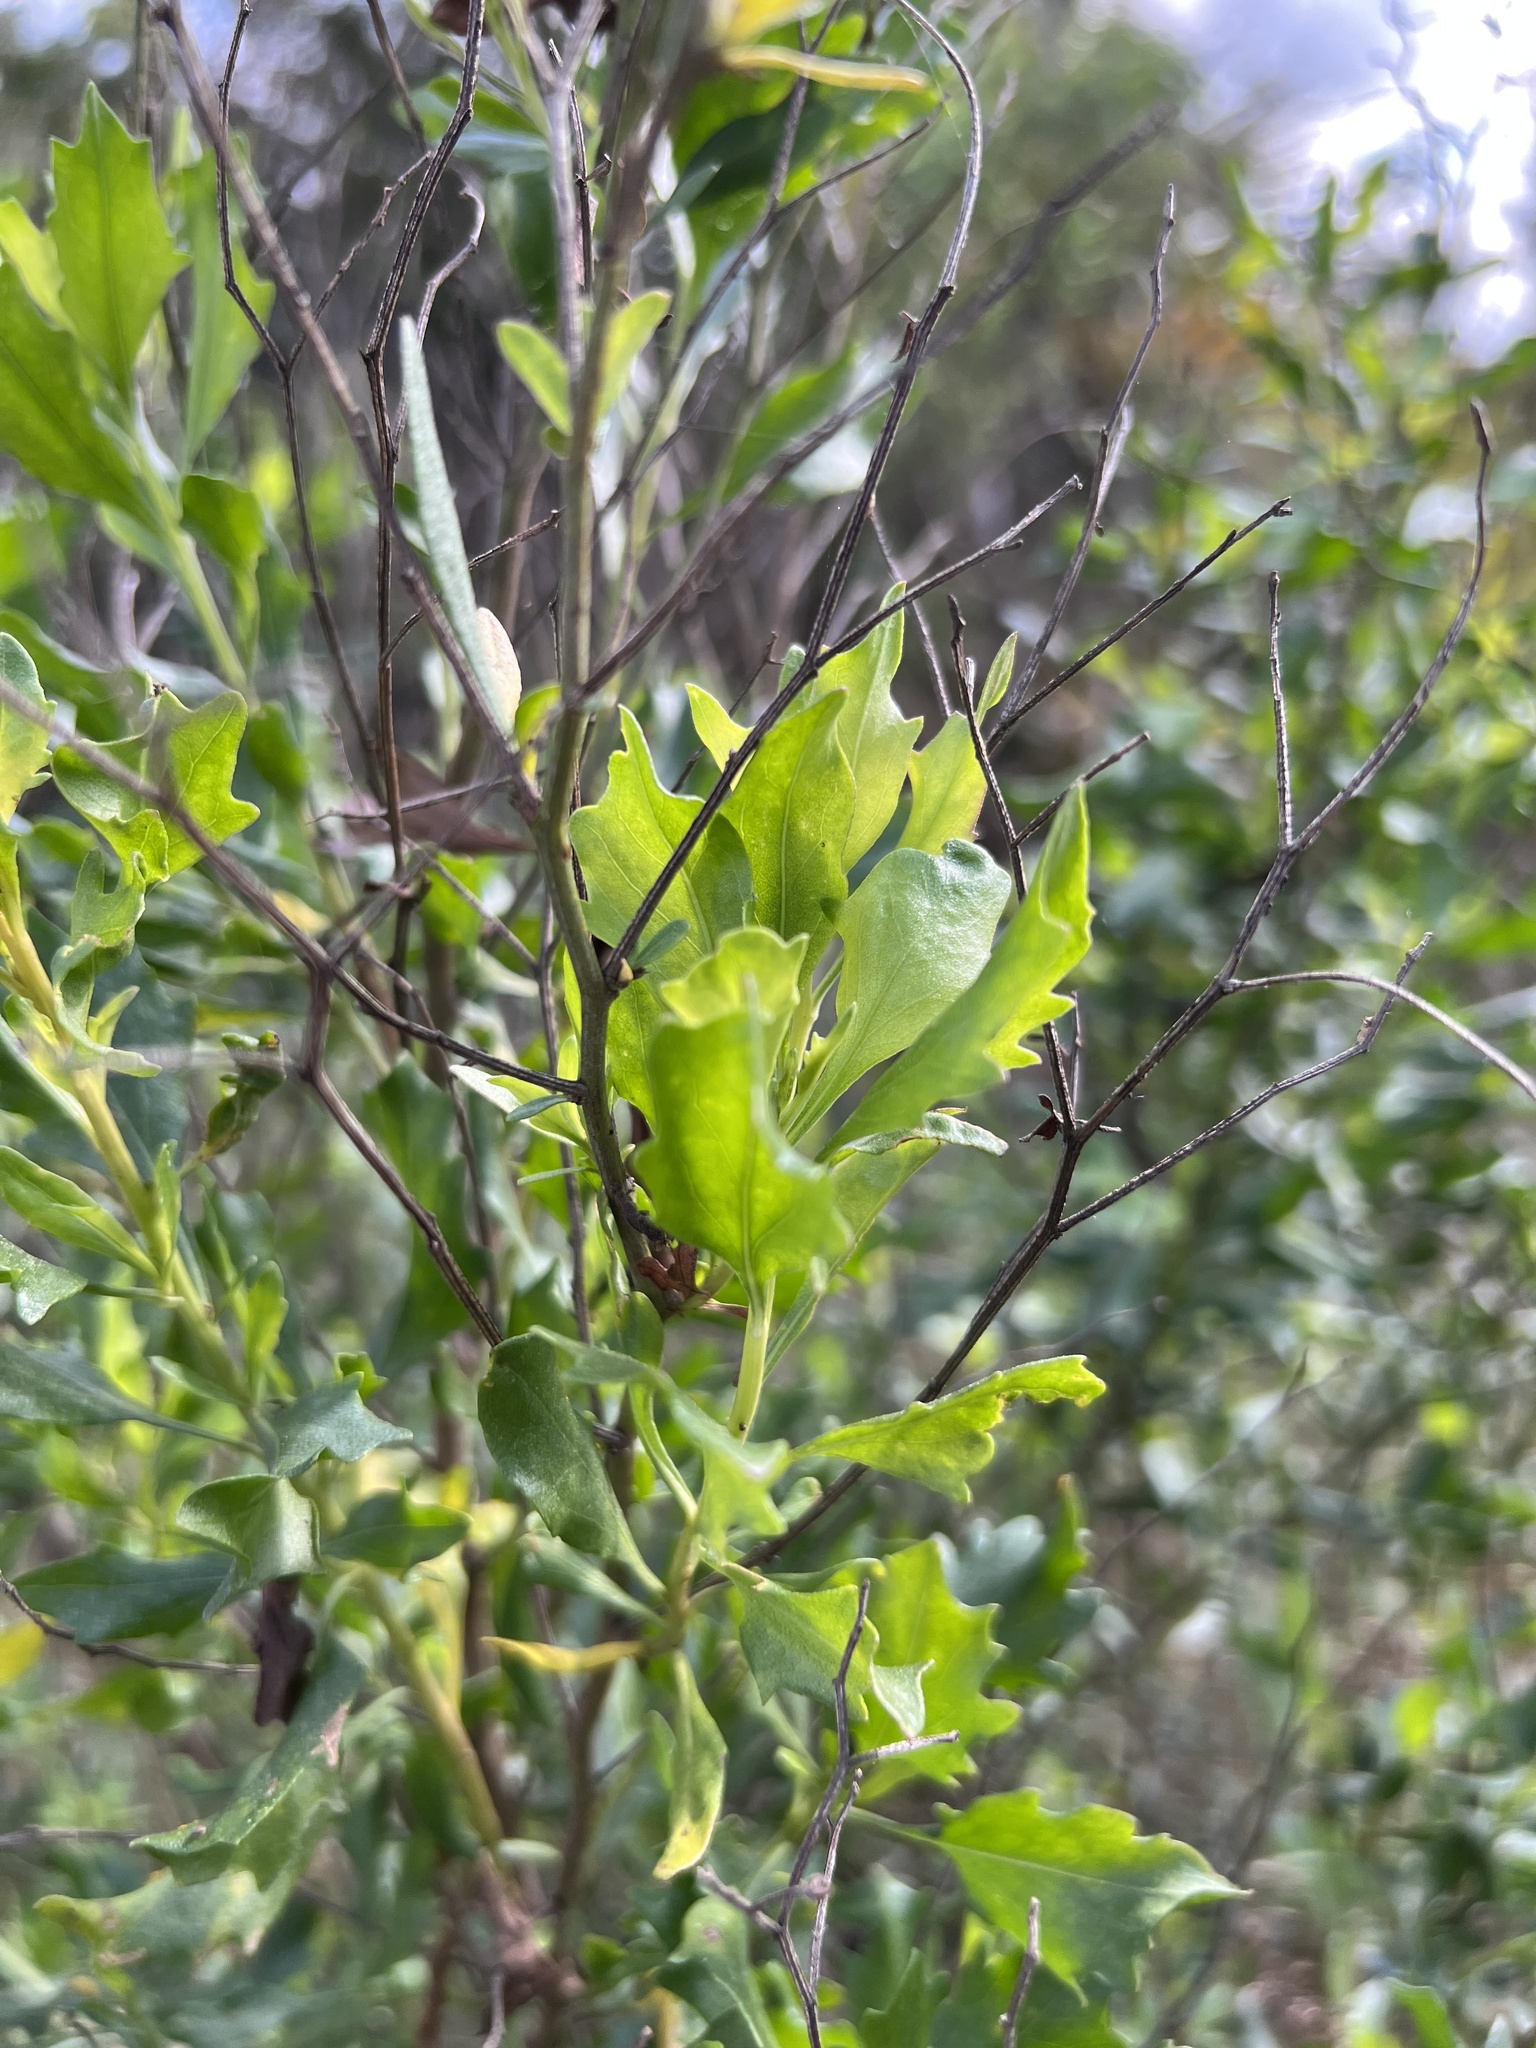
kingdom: Plantae
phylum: Tracheophyta
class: Magnoliopsida
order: Asterales
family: Asteraceae
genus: Baccharis
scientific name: Baccharis halimifolia
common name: Eastern baccharis
